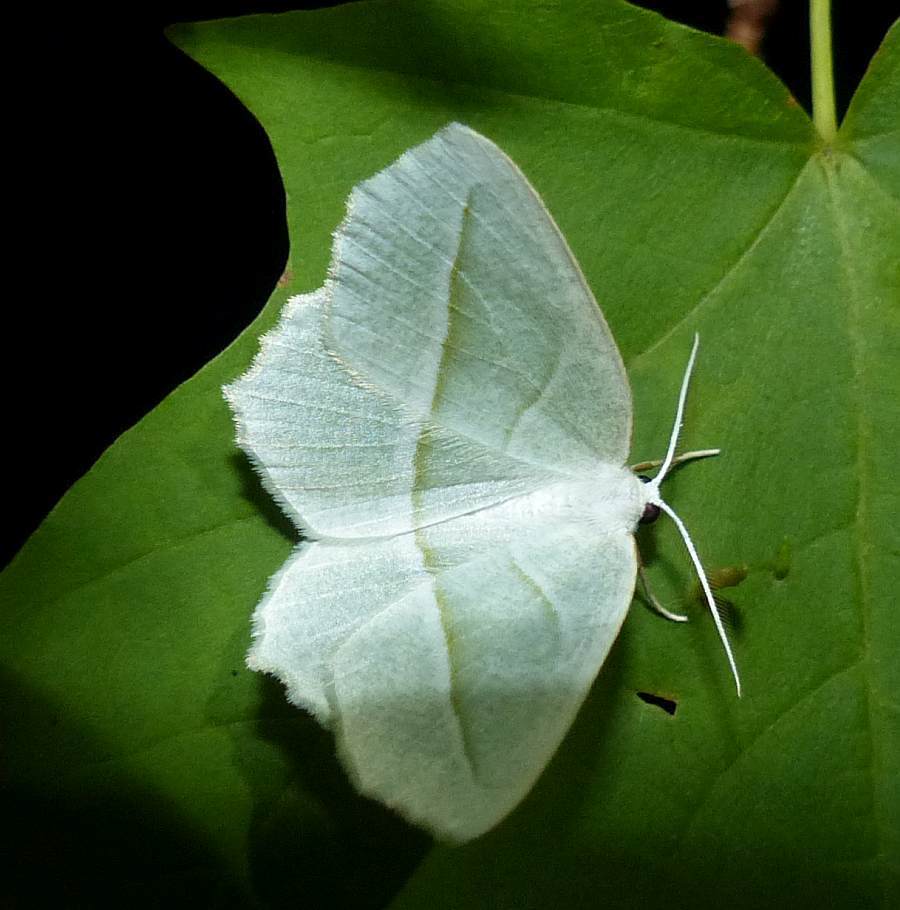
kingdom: Animalia
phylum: Arthropoda
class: Insecta
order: Lepidoptera
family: Geometridae
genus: Campaea
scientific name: Campaea perlata
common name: Fringed looper
